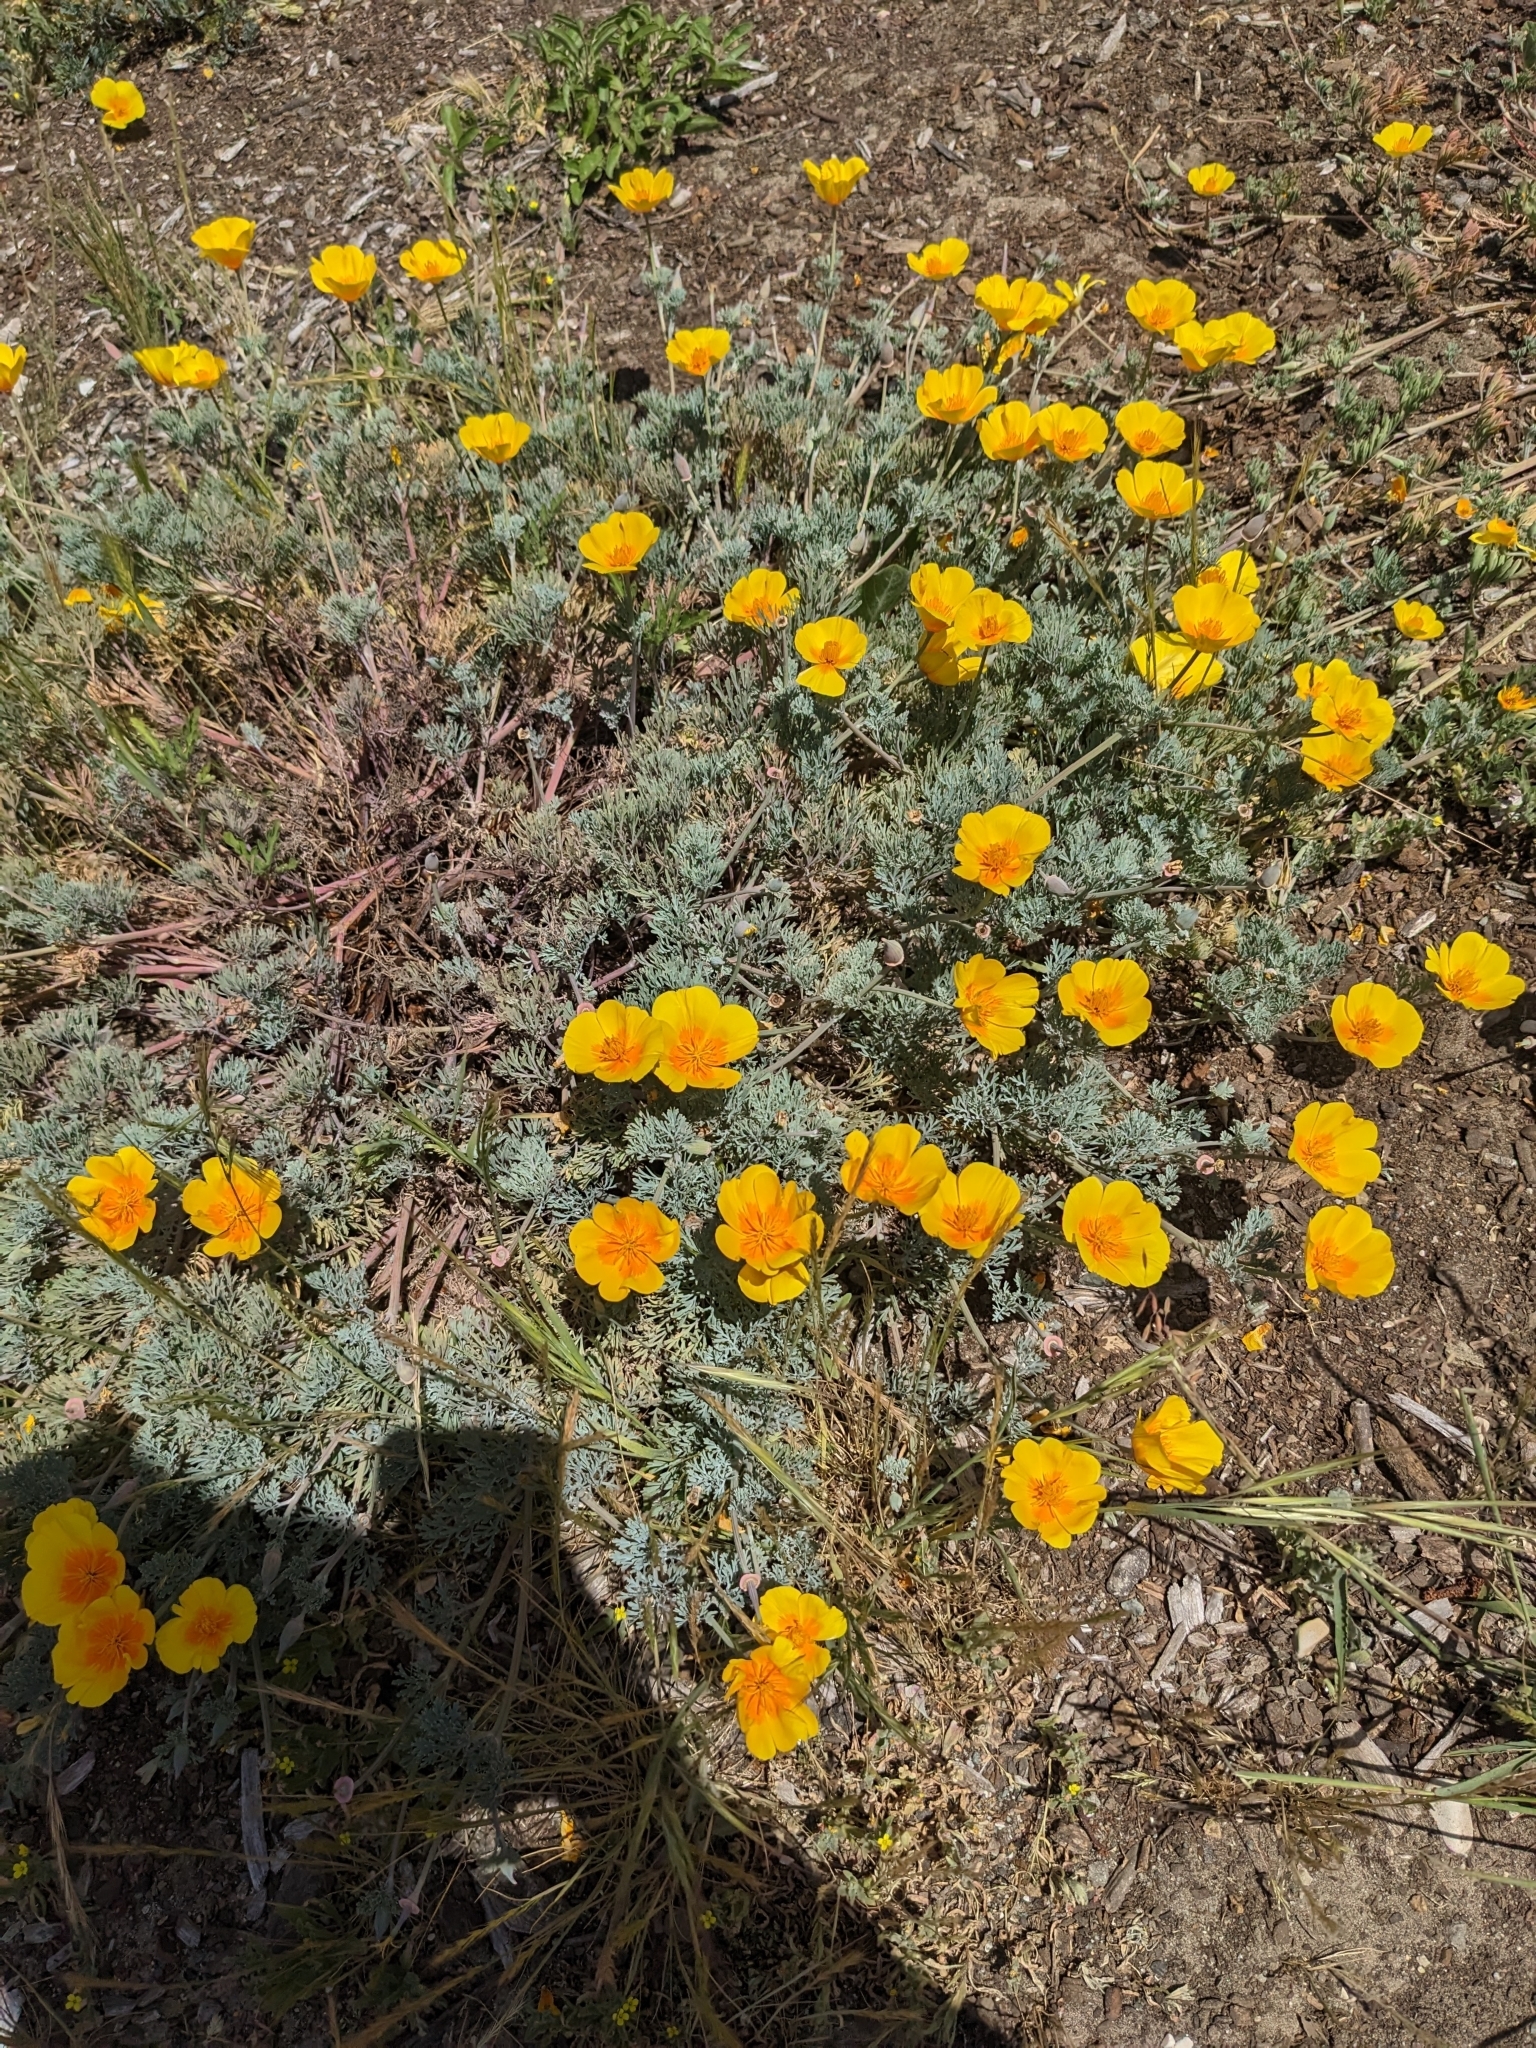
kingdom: Plantae
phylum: Tracheophyta
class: Magnoliopsida
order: Ranunculales
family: Papaveraceae
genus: Eschscholzia
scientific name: Eschscholzia californica
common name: California poppy
